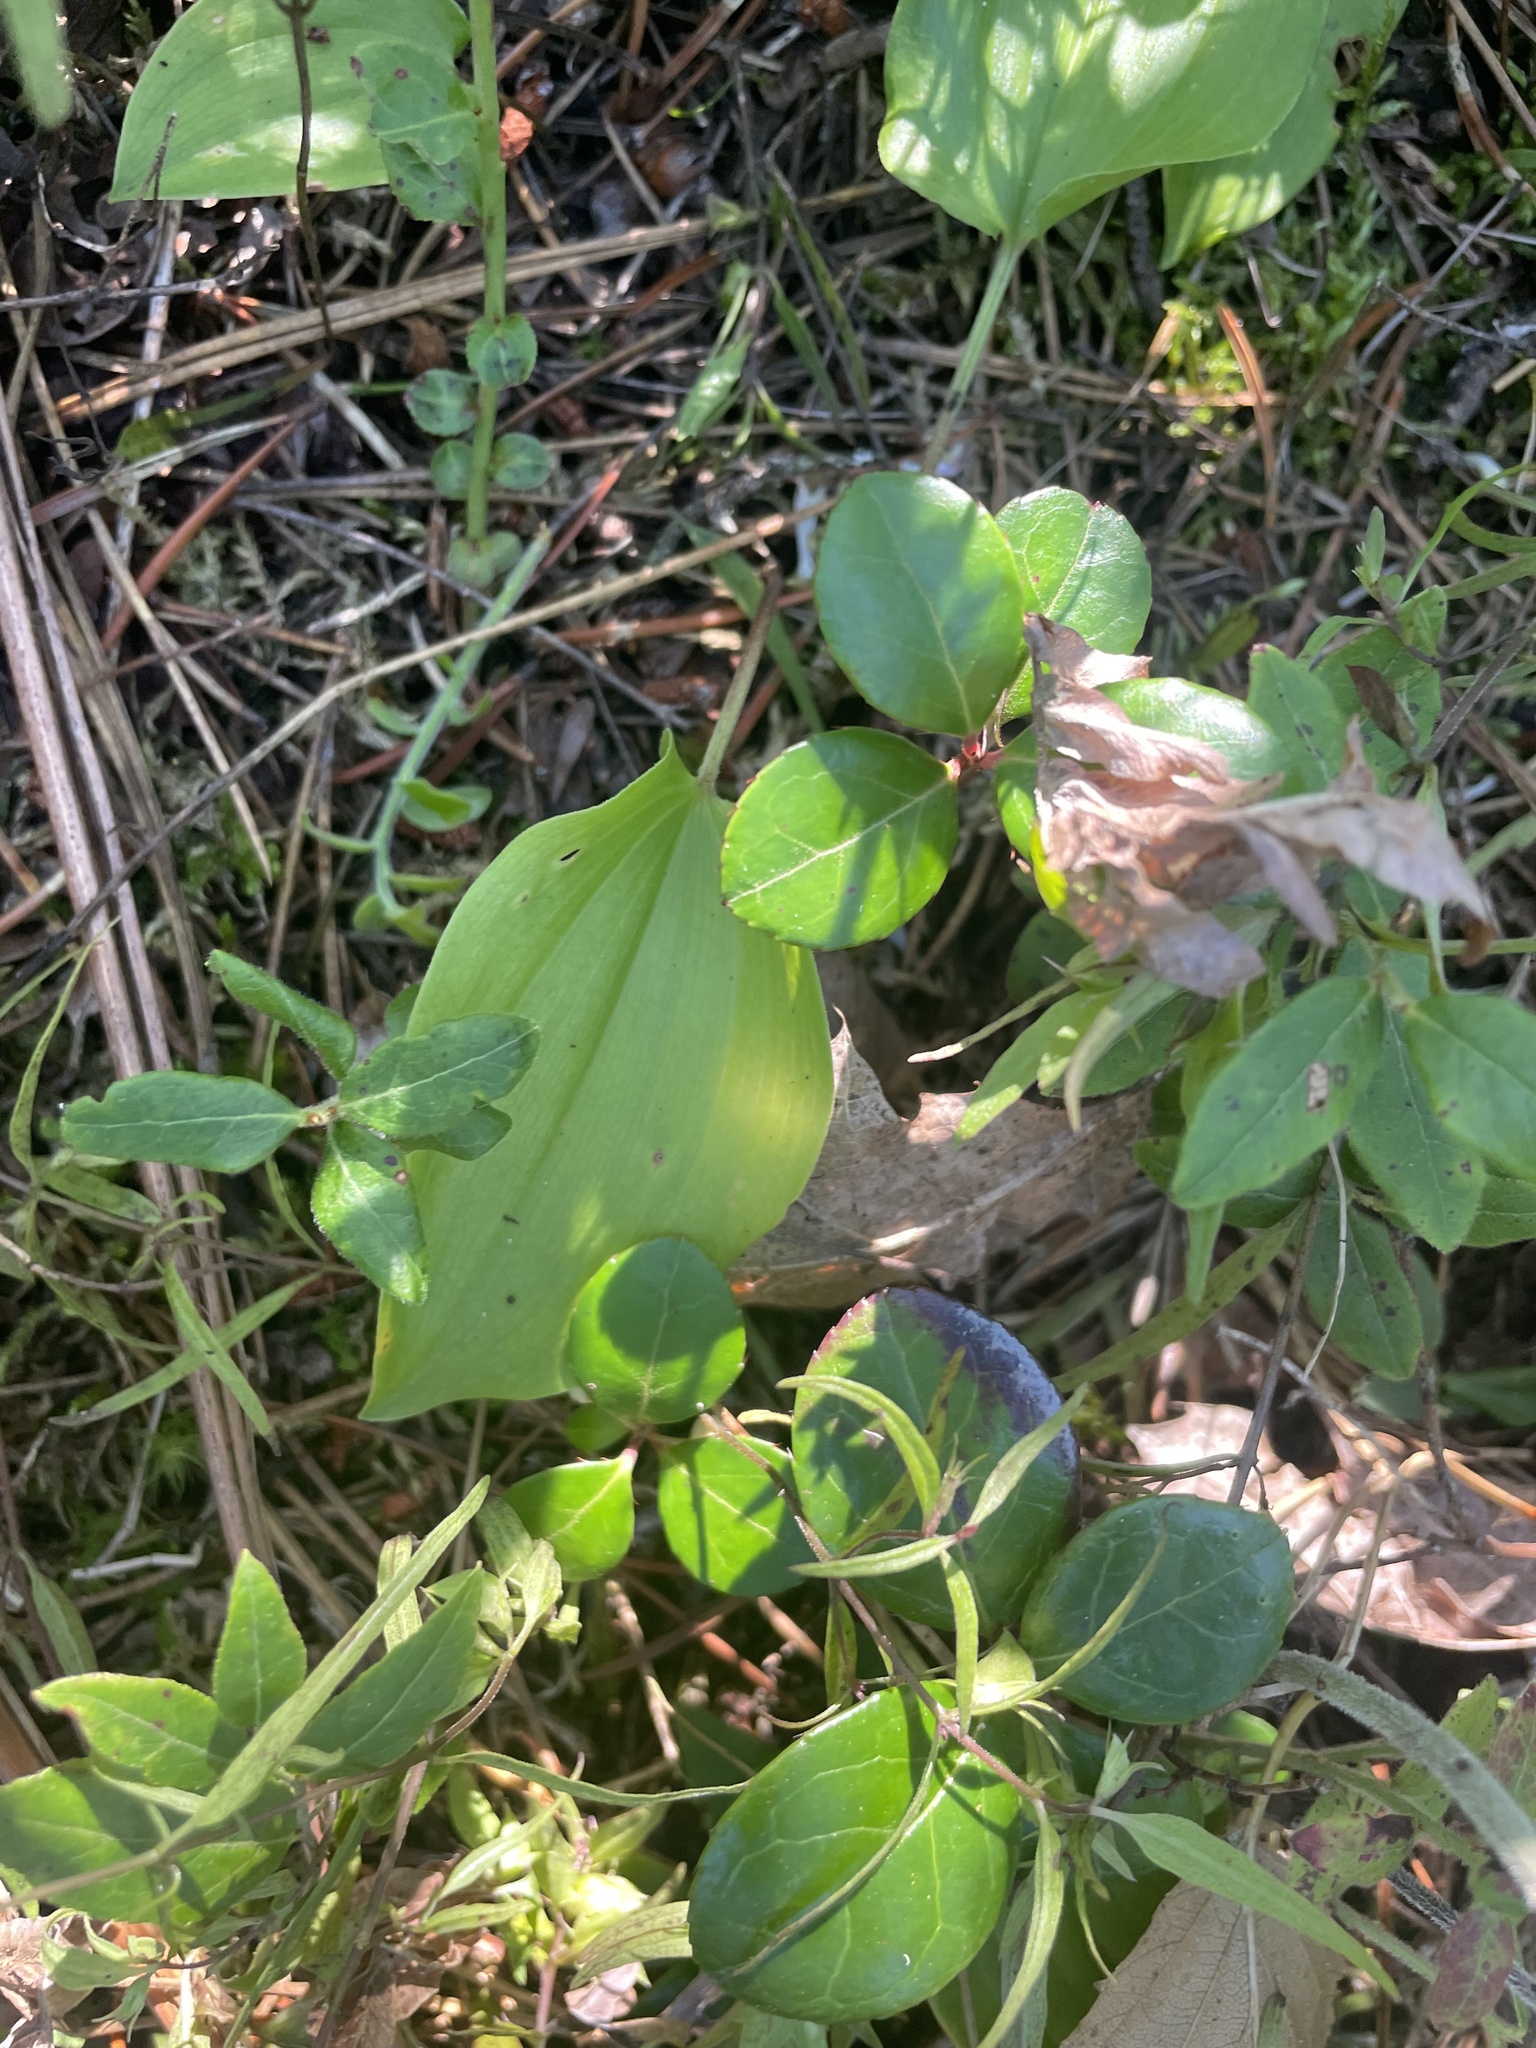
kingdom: Plantae
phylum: Tracheophyta
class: Liliopsida
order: Asparagales
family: Asparagaceae
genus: Maianthemum
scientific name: Maianthemum canadense
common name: False lily-of-the-valley
